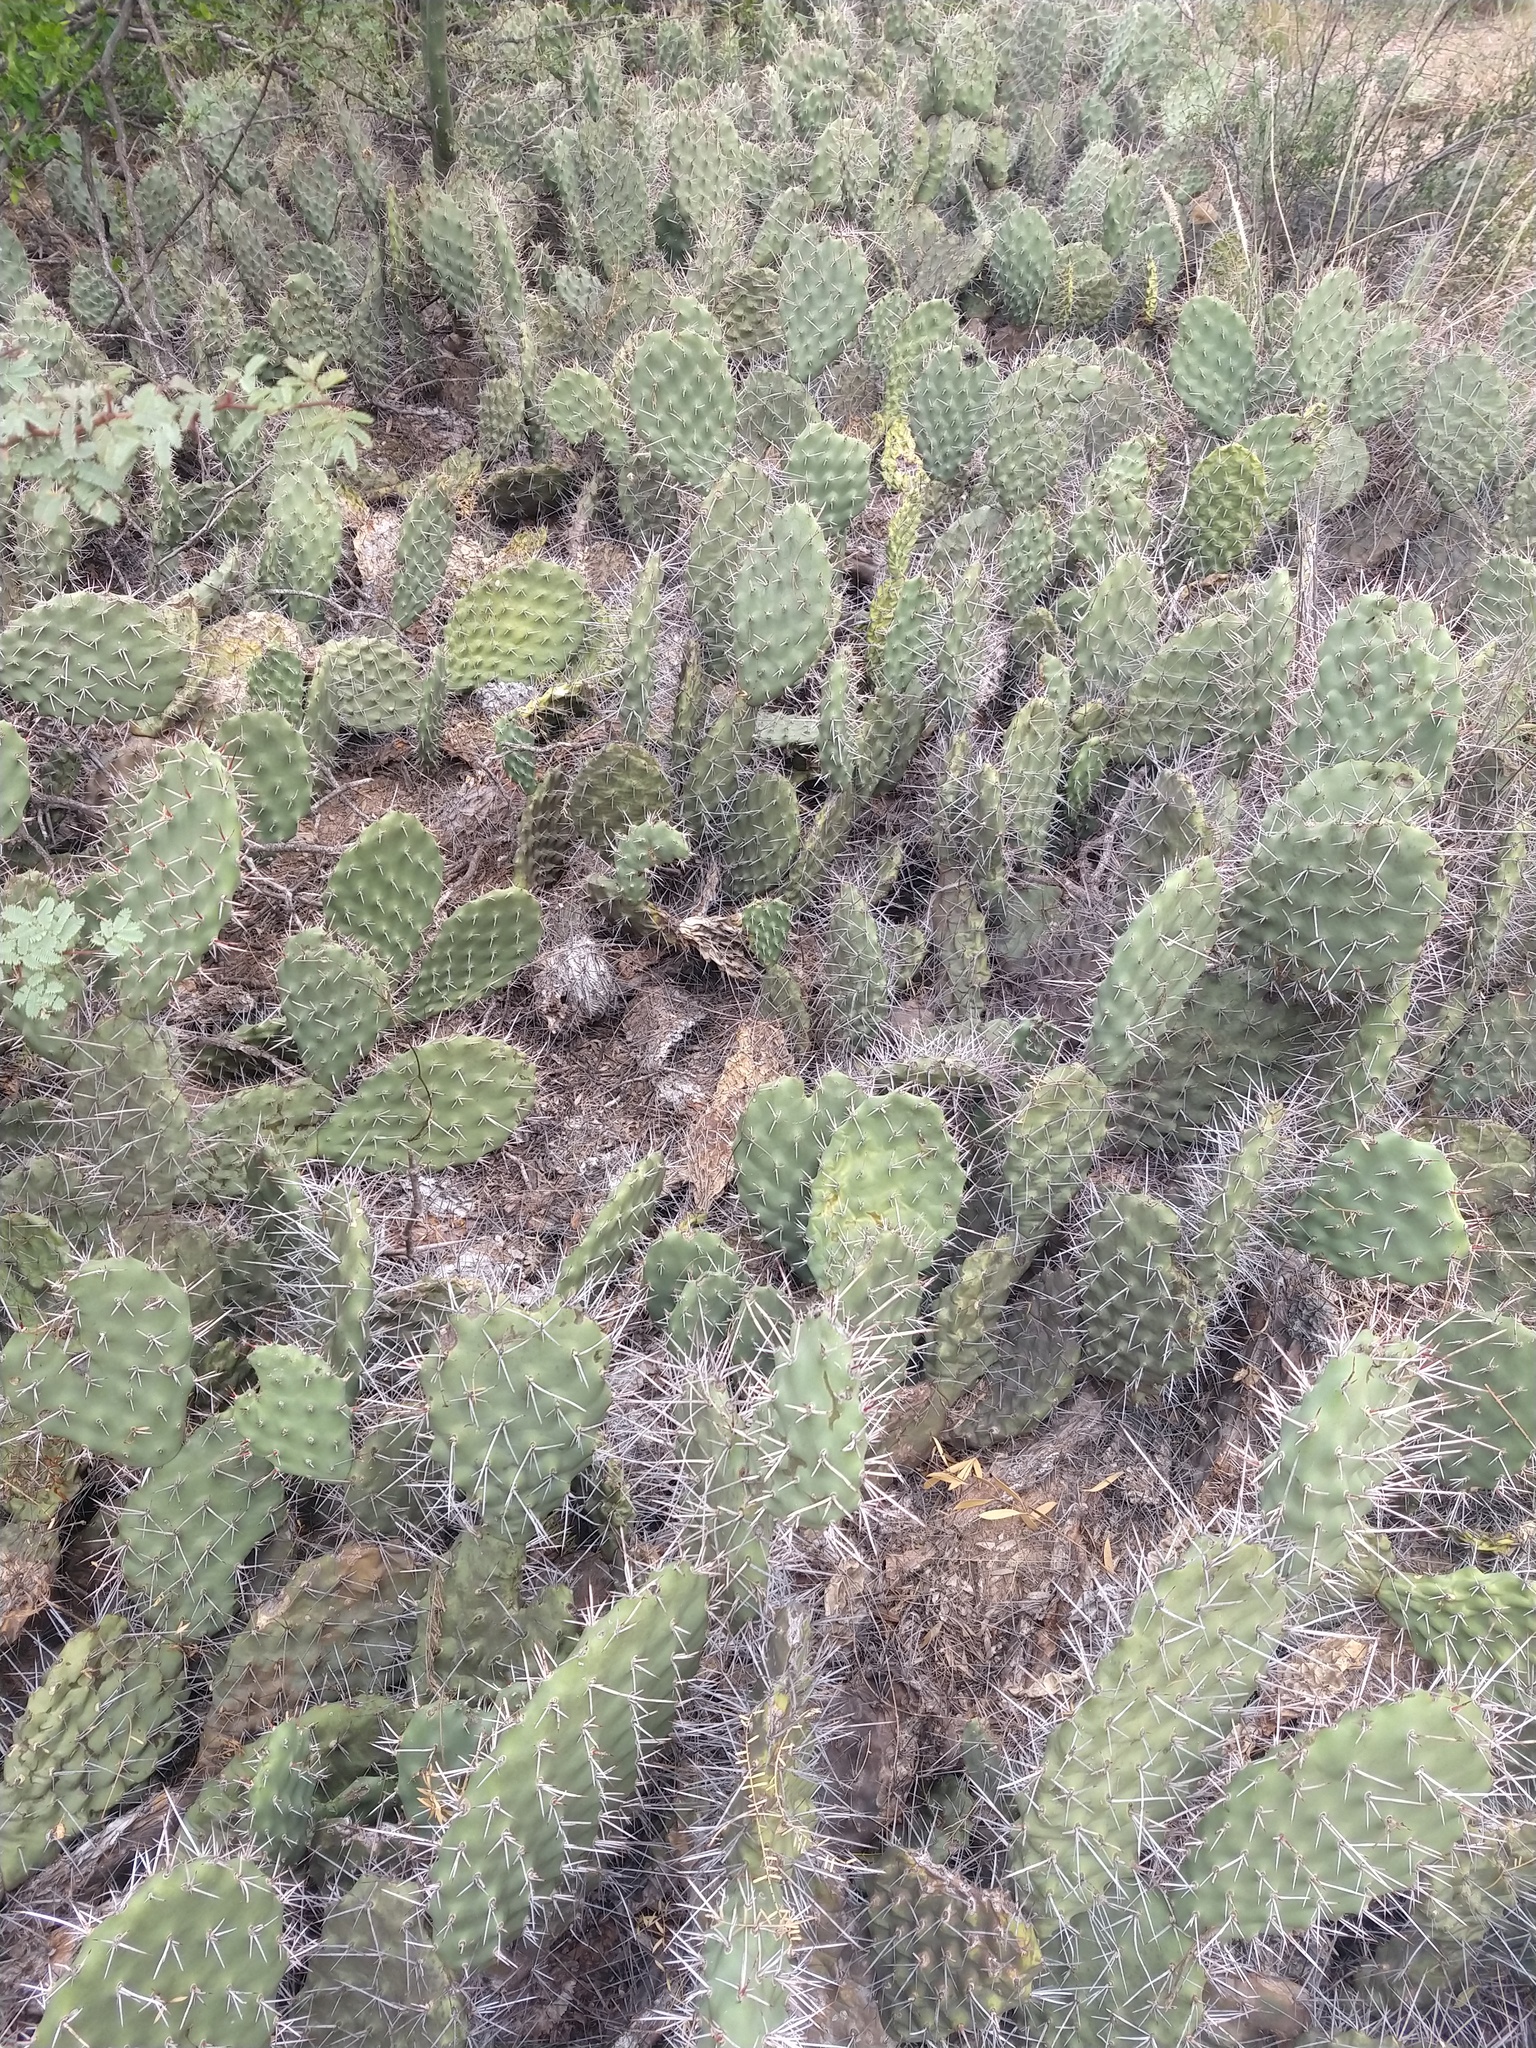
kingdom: Plantae
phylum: Tracheophyta
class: Magnoliopsida
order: Caryophyllales
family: Cactaceae
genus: Opuntia
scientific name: Opuntia sulphurea
